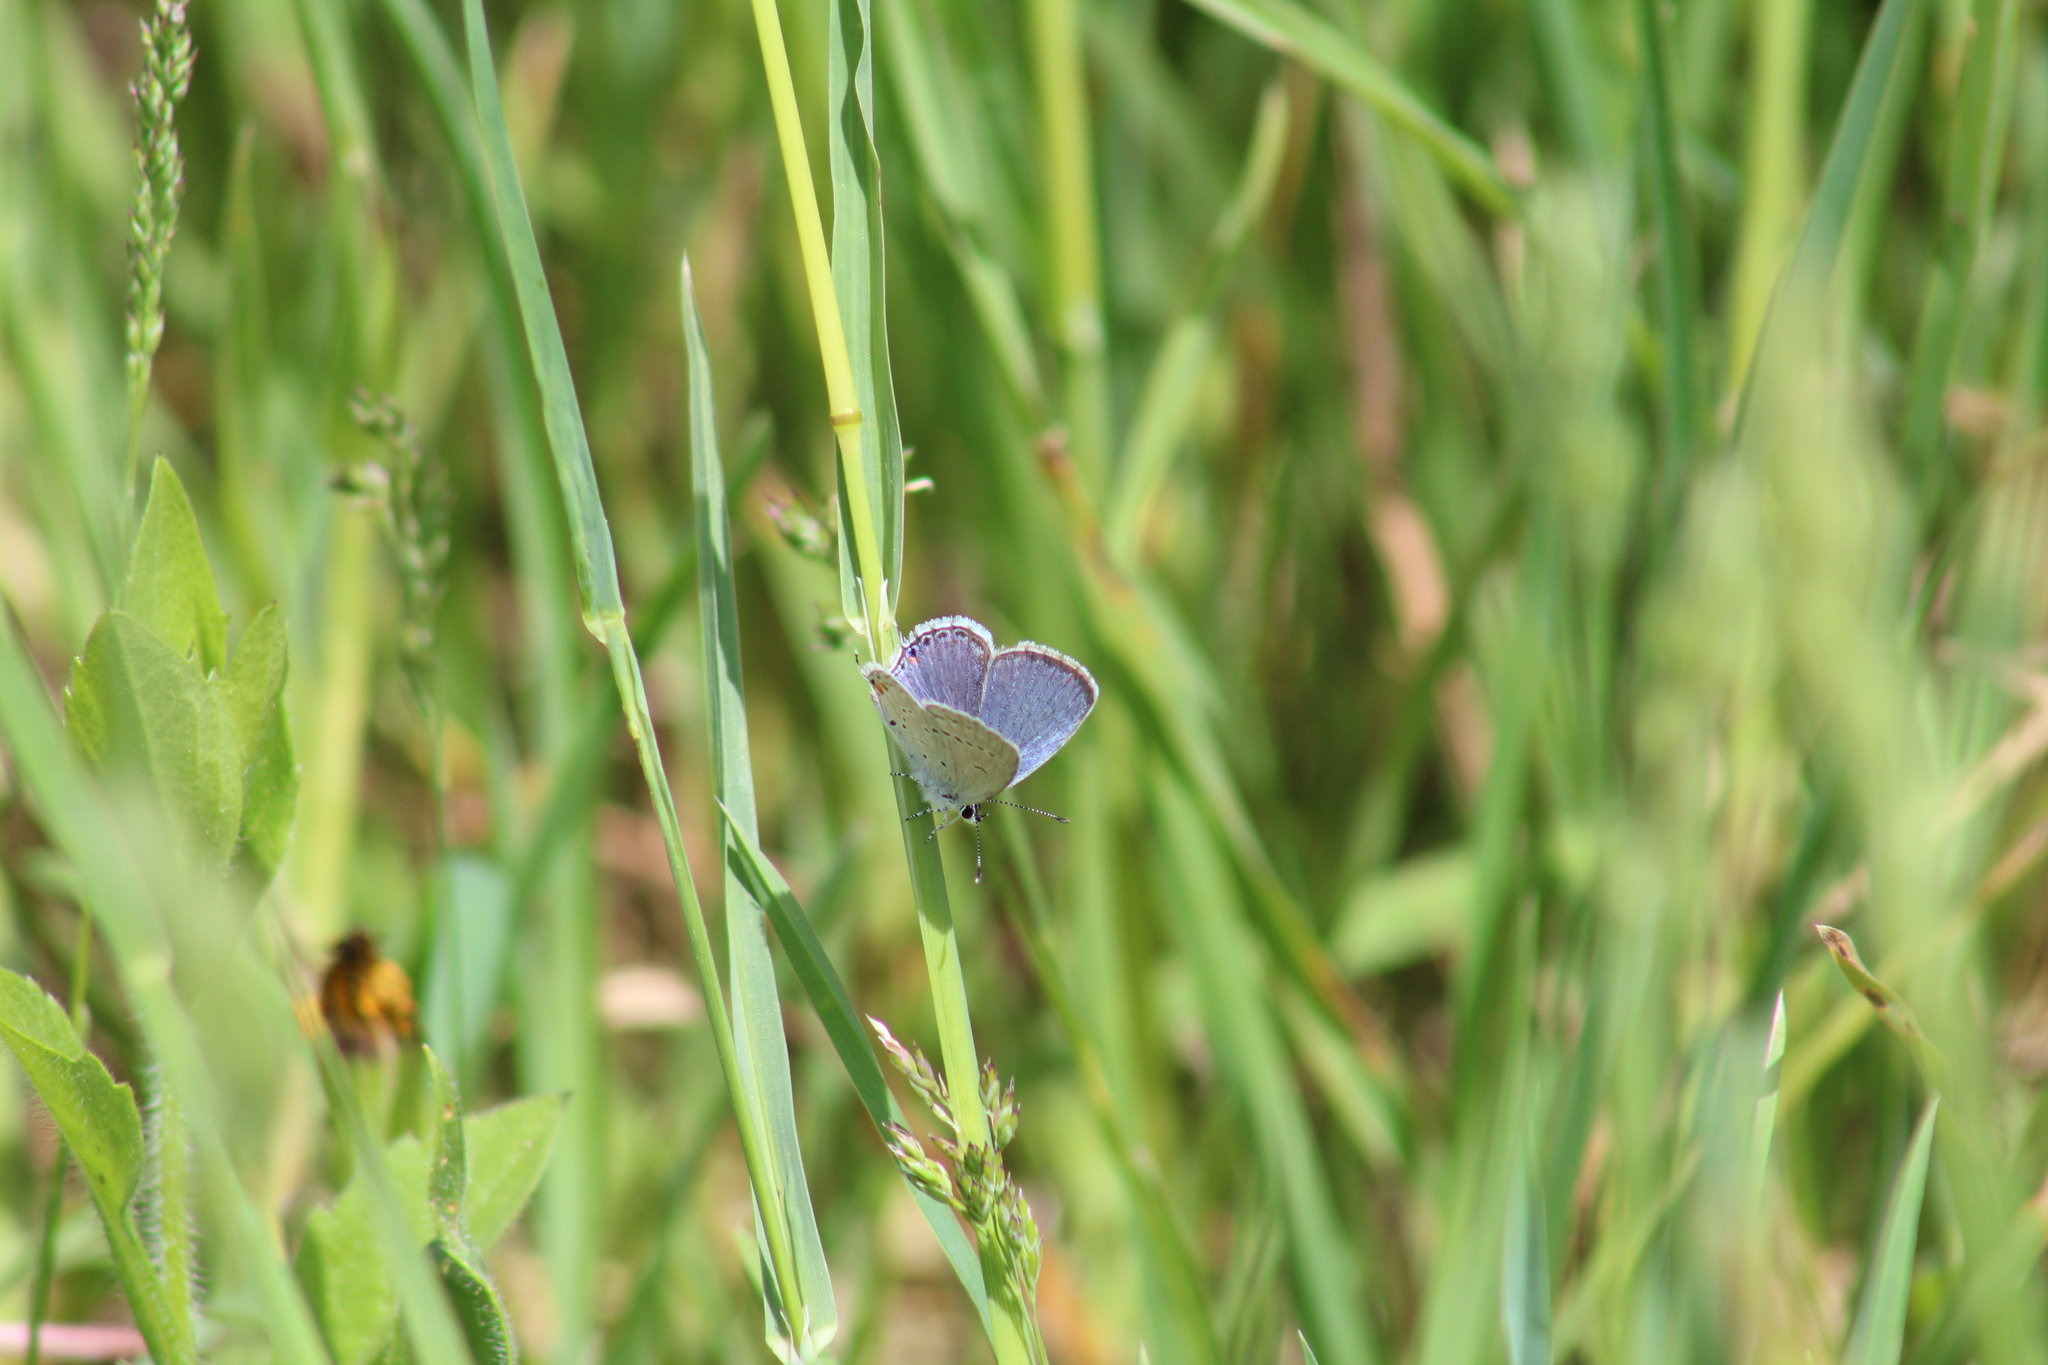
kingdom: Animalia
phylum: Arthropoda
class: Insecta
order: Lepidoptera
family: Lycaenidae
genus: Elkalyce
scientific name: Elkalyce comyntas
